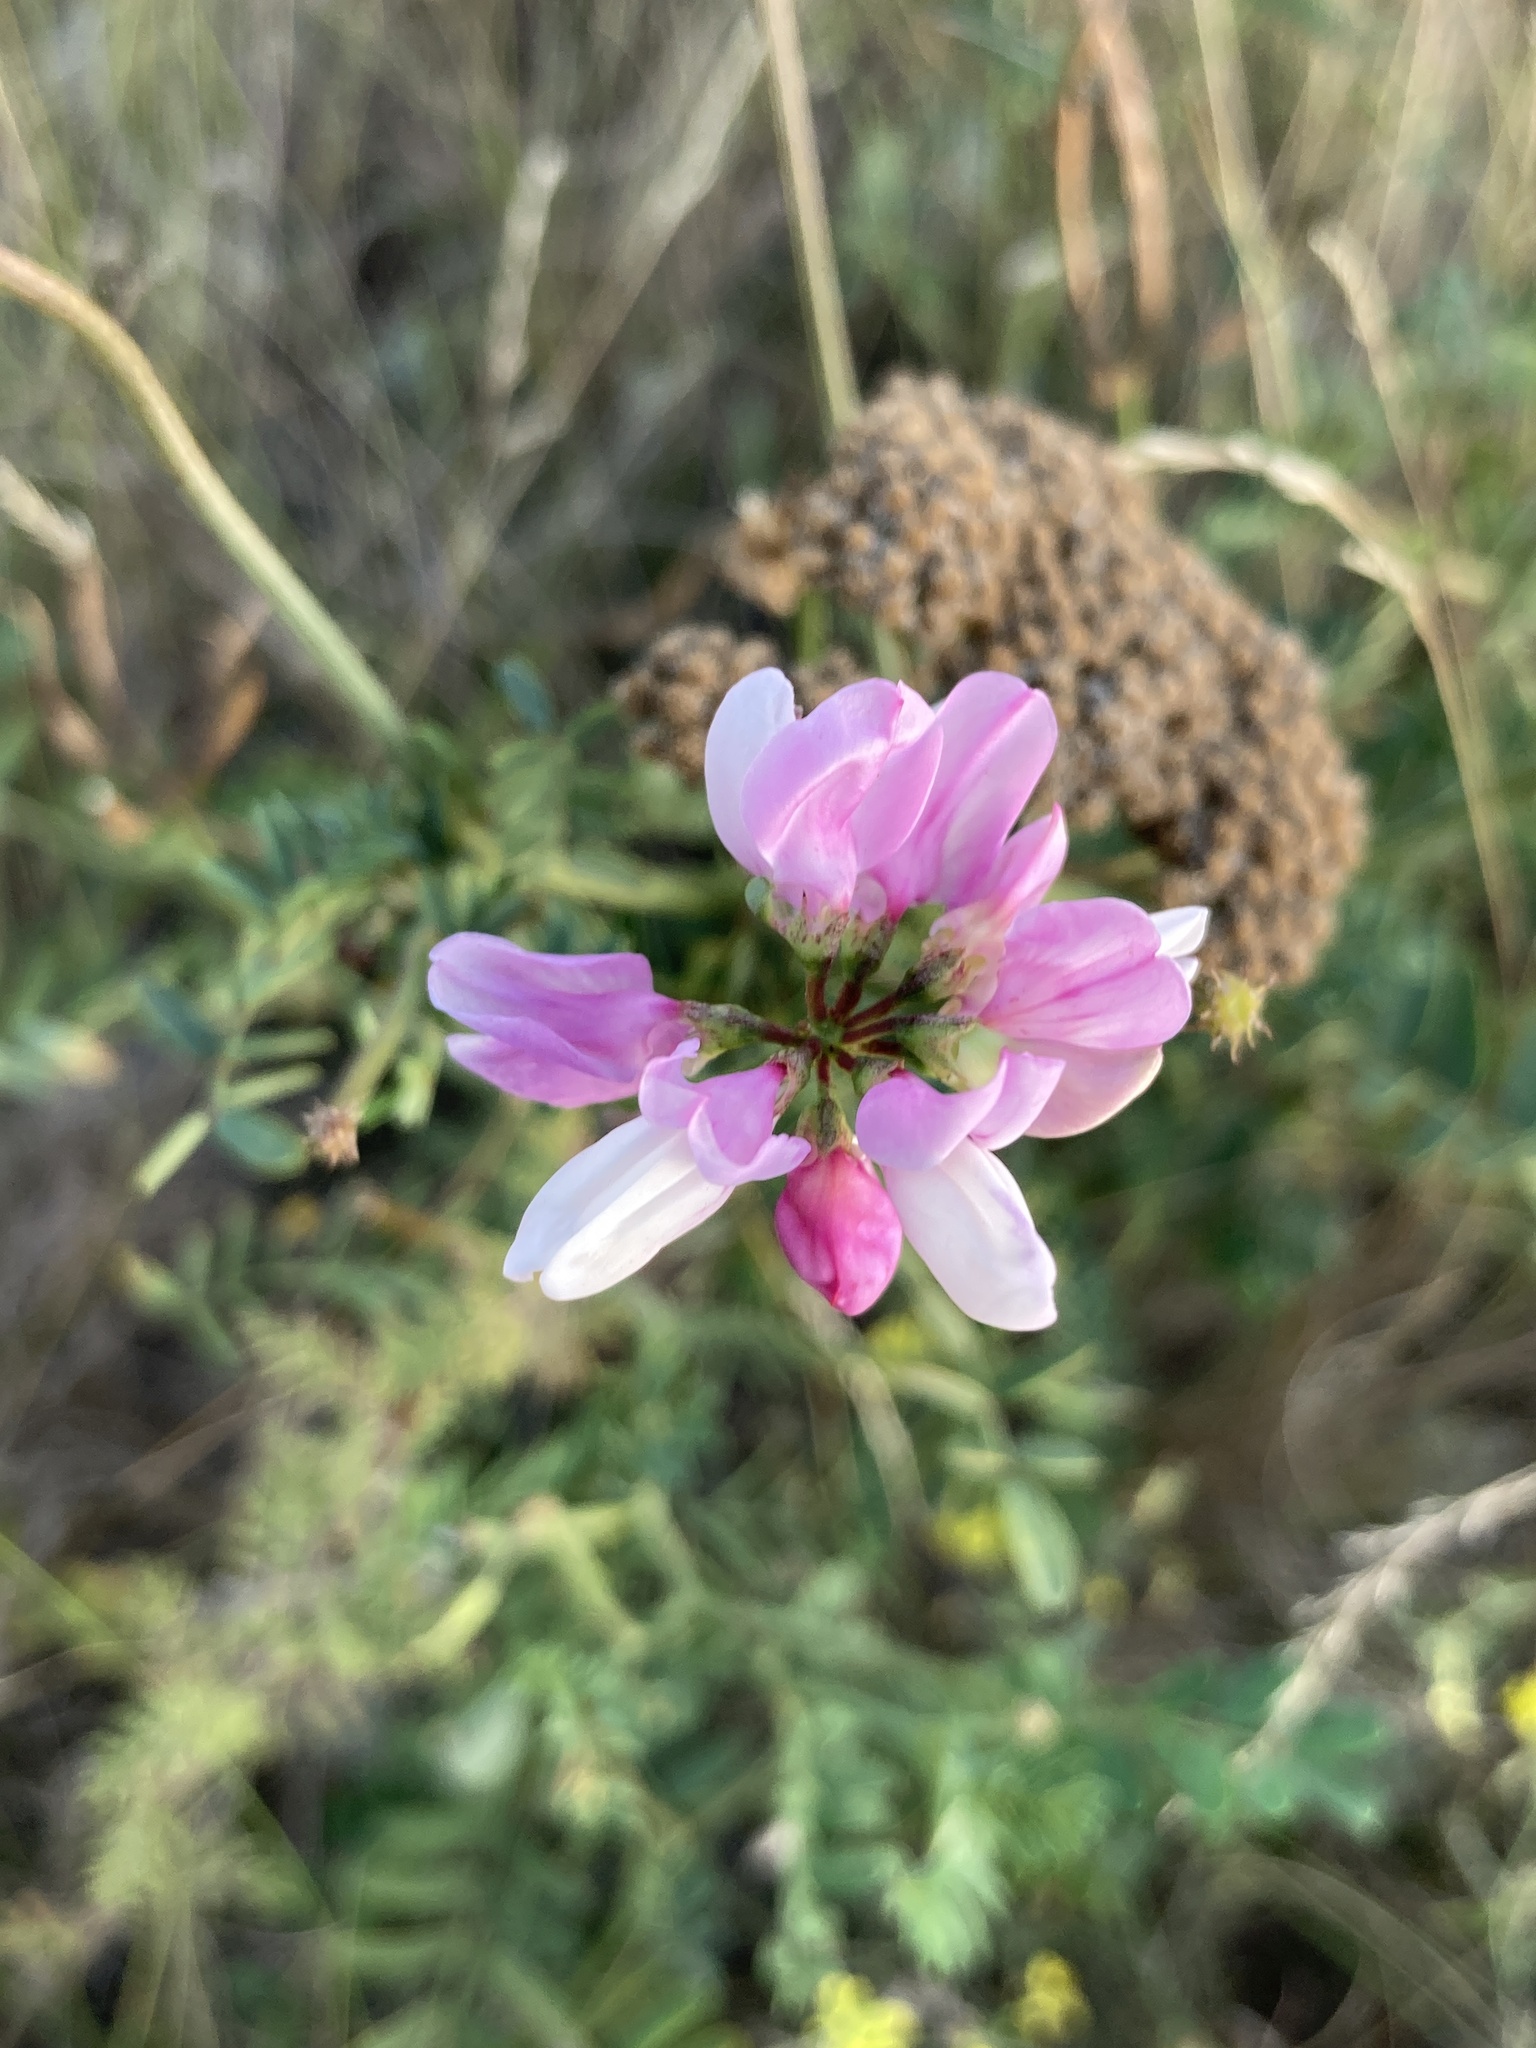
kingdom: Plantae
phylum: Tracheophyta
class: Magnoliopsida
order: Fabales
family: Fabaceae
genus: Coronilla
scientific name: Coronilla varia
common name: Crownvetch
